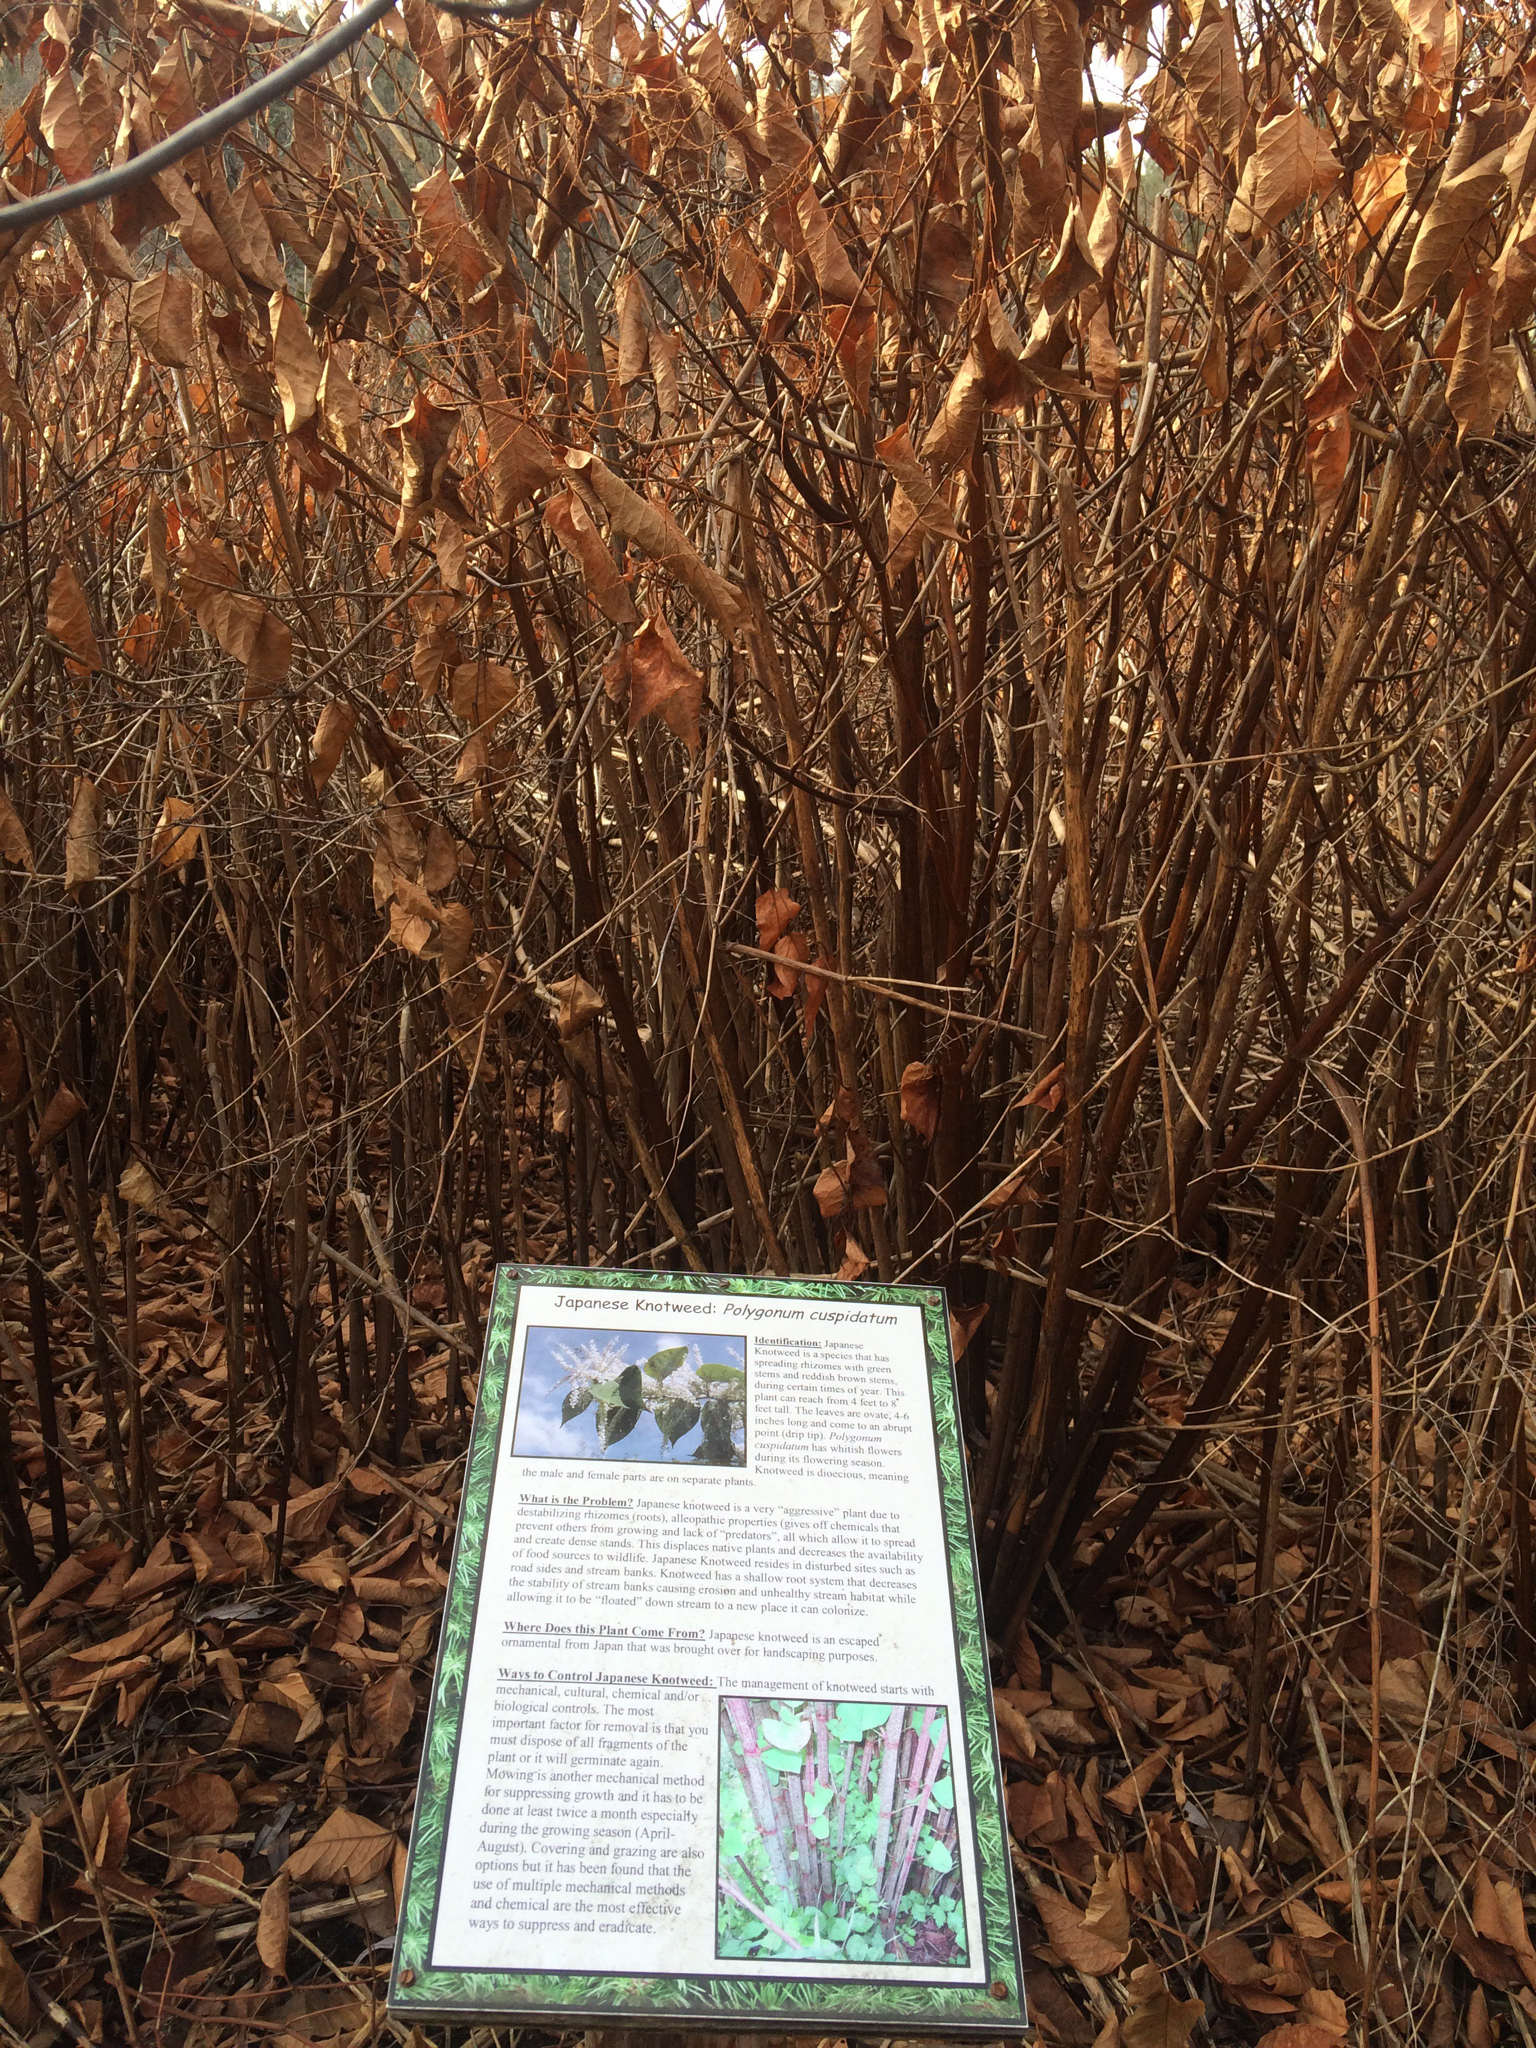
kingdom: Plantae
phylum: Tracheophyta
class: Magnoliopsida
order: Caryophyllales
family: Polygonaceae
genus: Reynoutria
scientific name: Reynoutria japonica
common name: Japanese knotweed
